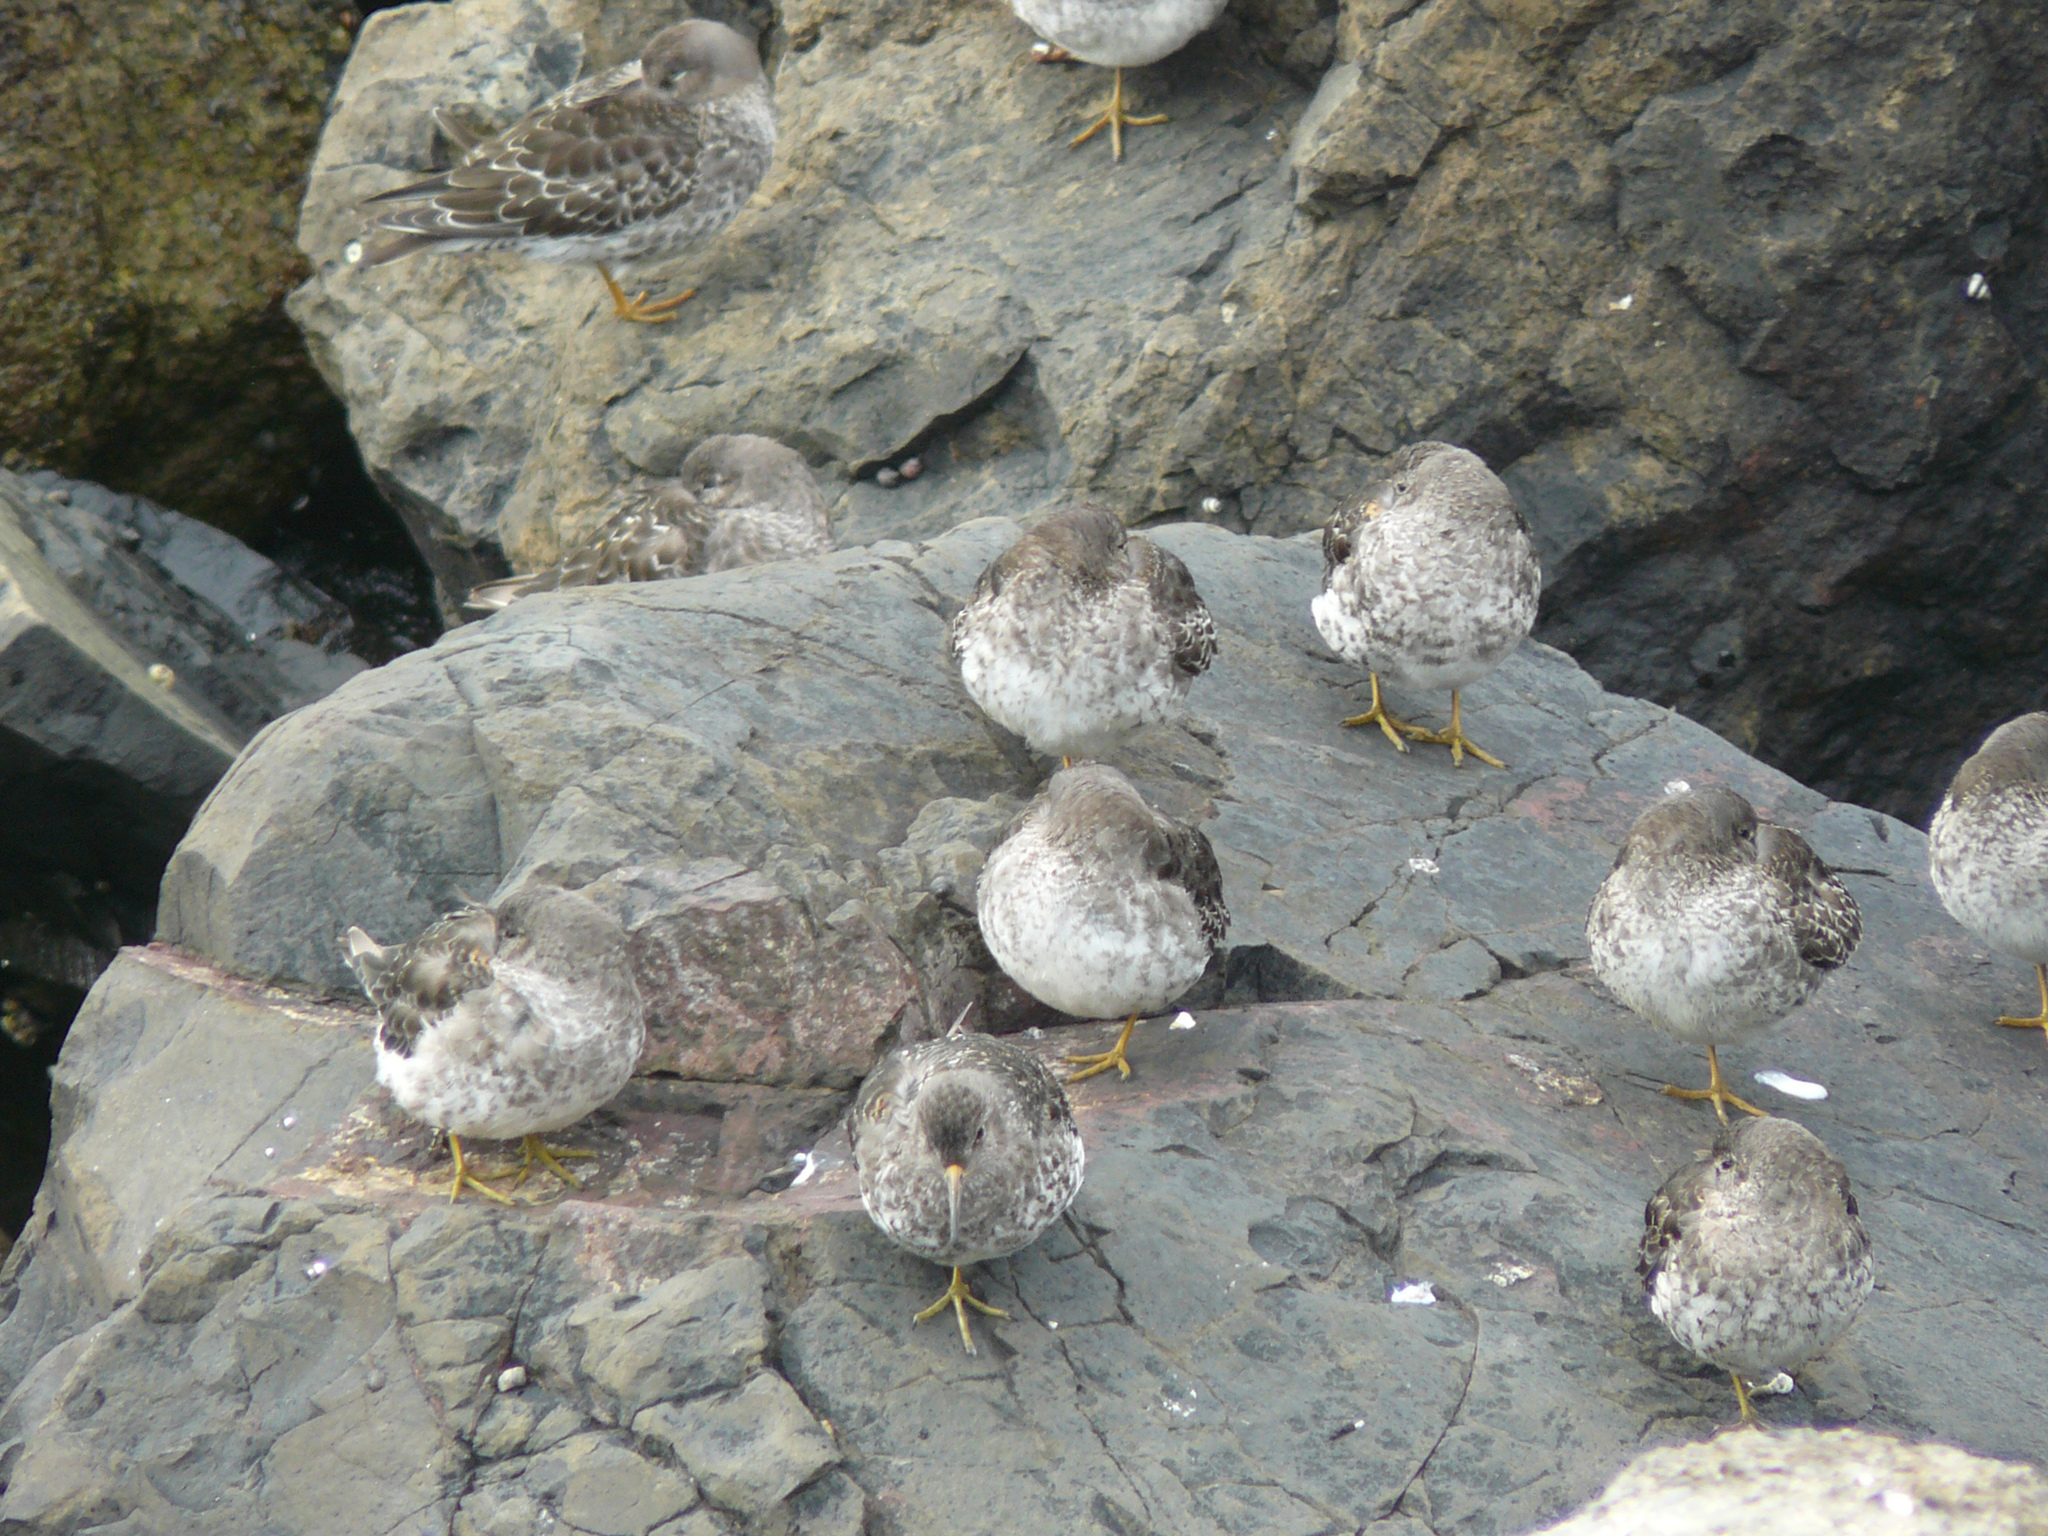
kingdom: Animalia
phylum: Chordata
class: Aves
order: Charadriiformes
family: Scolopacidae
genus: Calidris
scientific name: Calidris maritima
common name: Purple sandpiper
